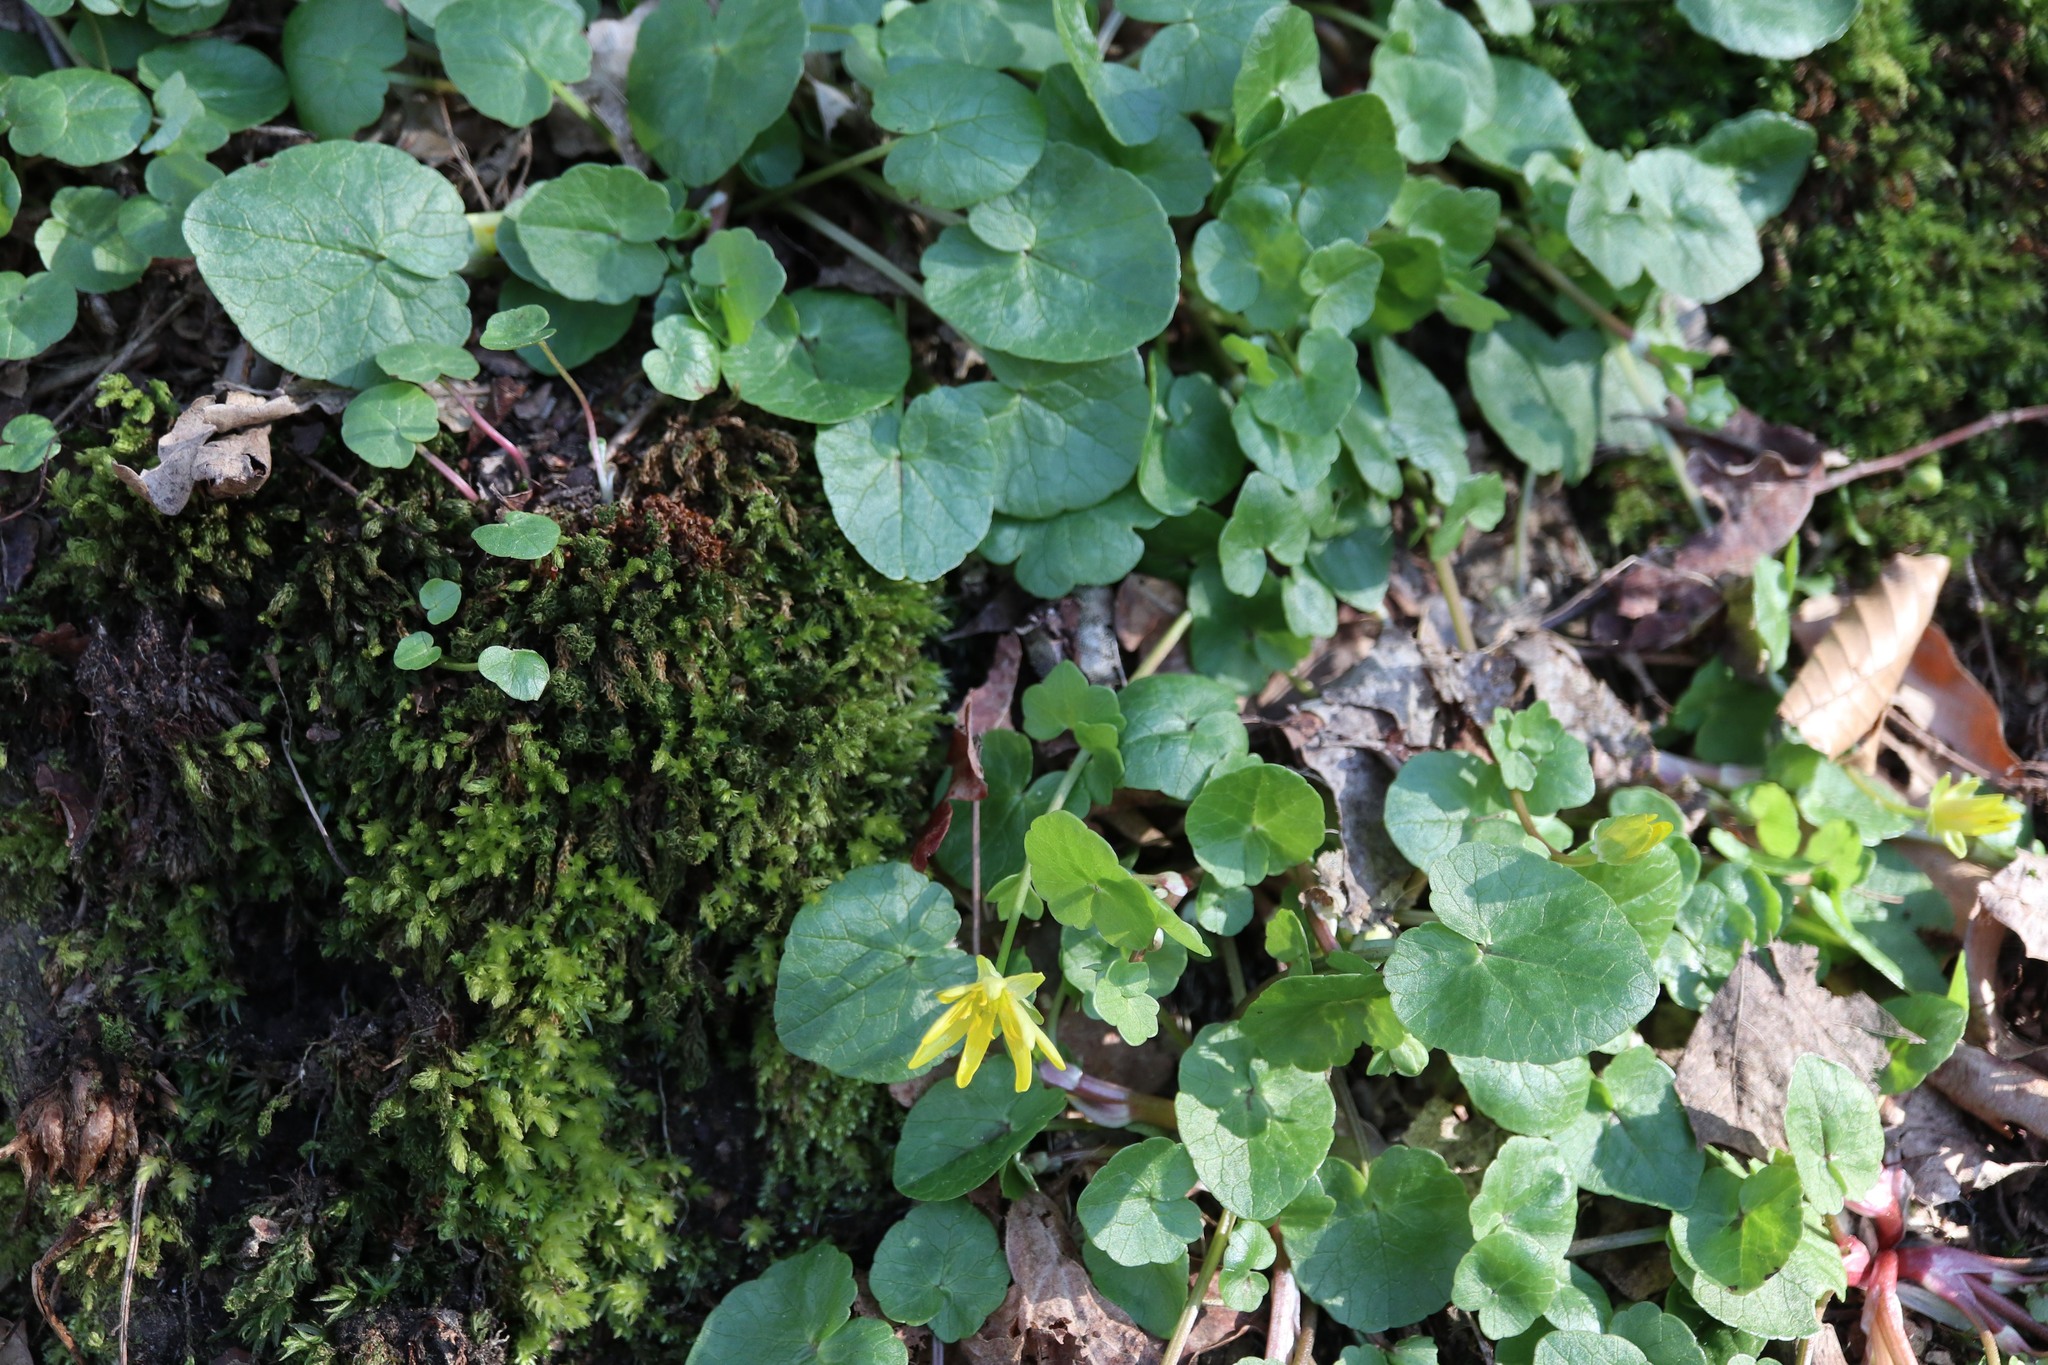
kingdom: Plantae
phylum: Tracheophyta
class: Magnoliopsida
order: Ranunculales
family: Ranunculaceae
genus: Ficaria
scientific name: Ficaria verna
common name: Lesser celandine
